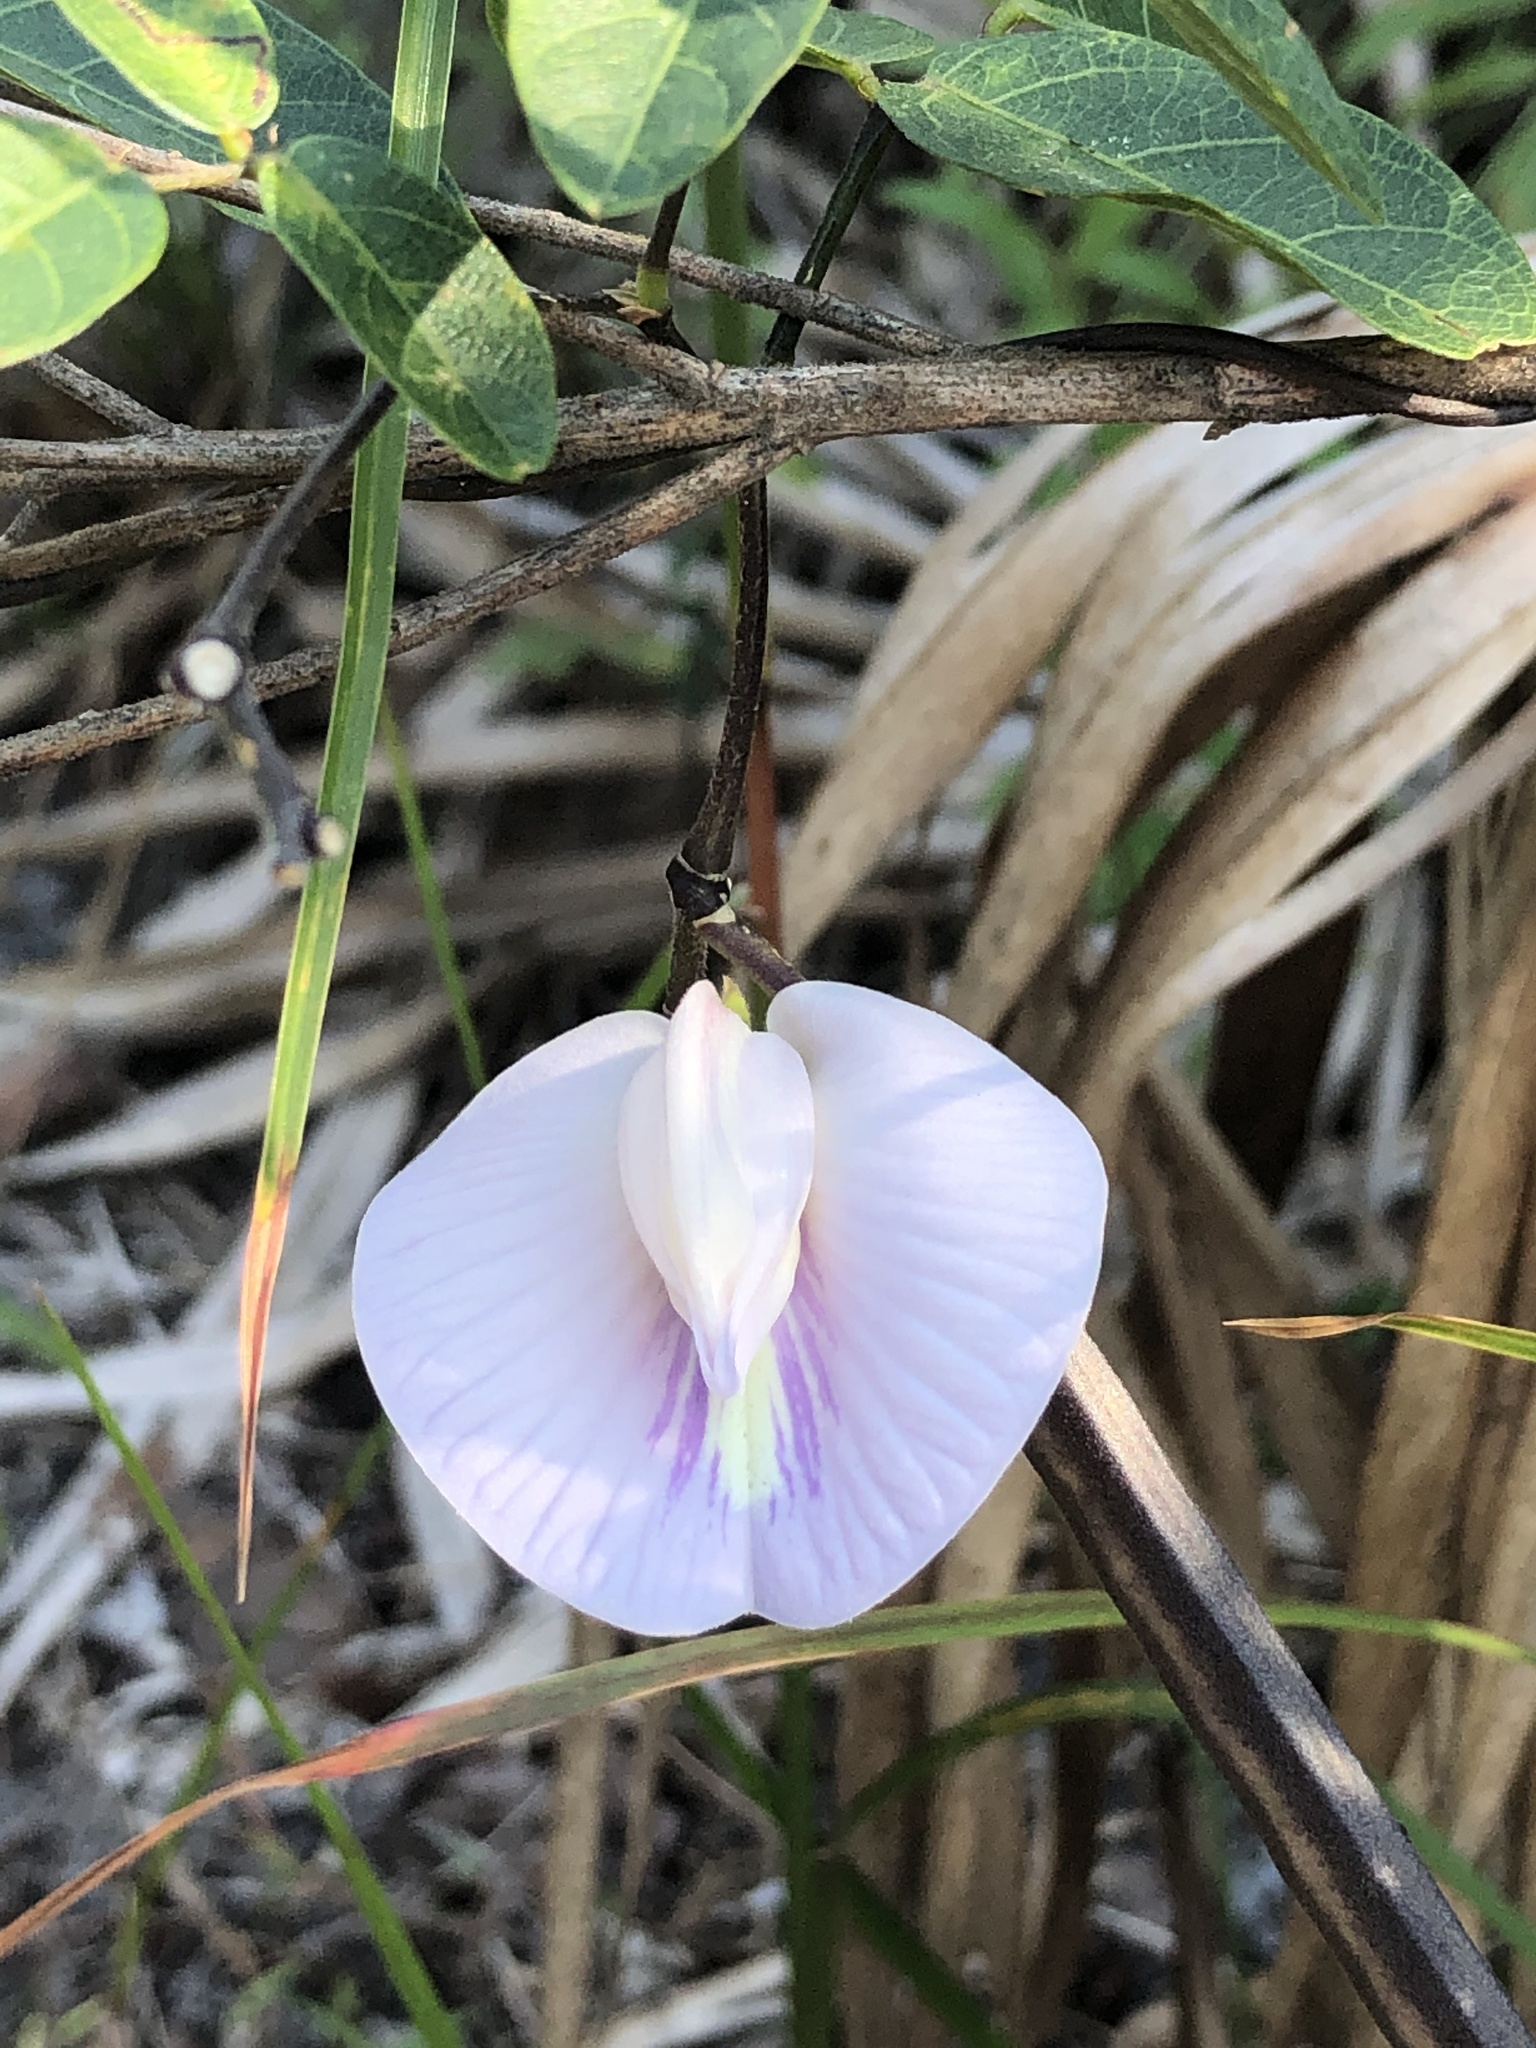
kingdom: Plantae
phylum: Tracheophyta
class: Magnoliopsida
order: Fabales
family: Fabaceae
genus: Centrosema
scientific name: Centrosema arenicola
